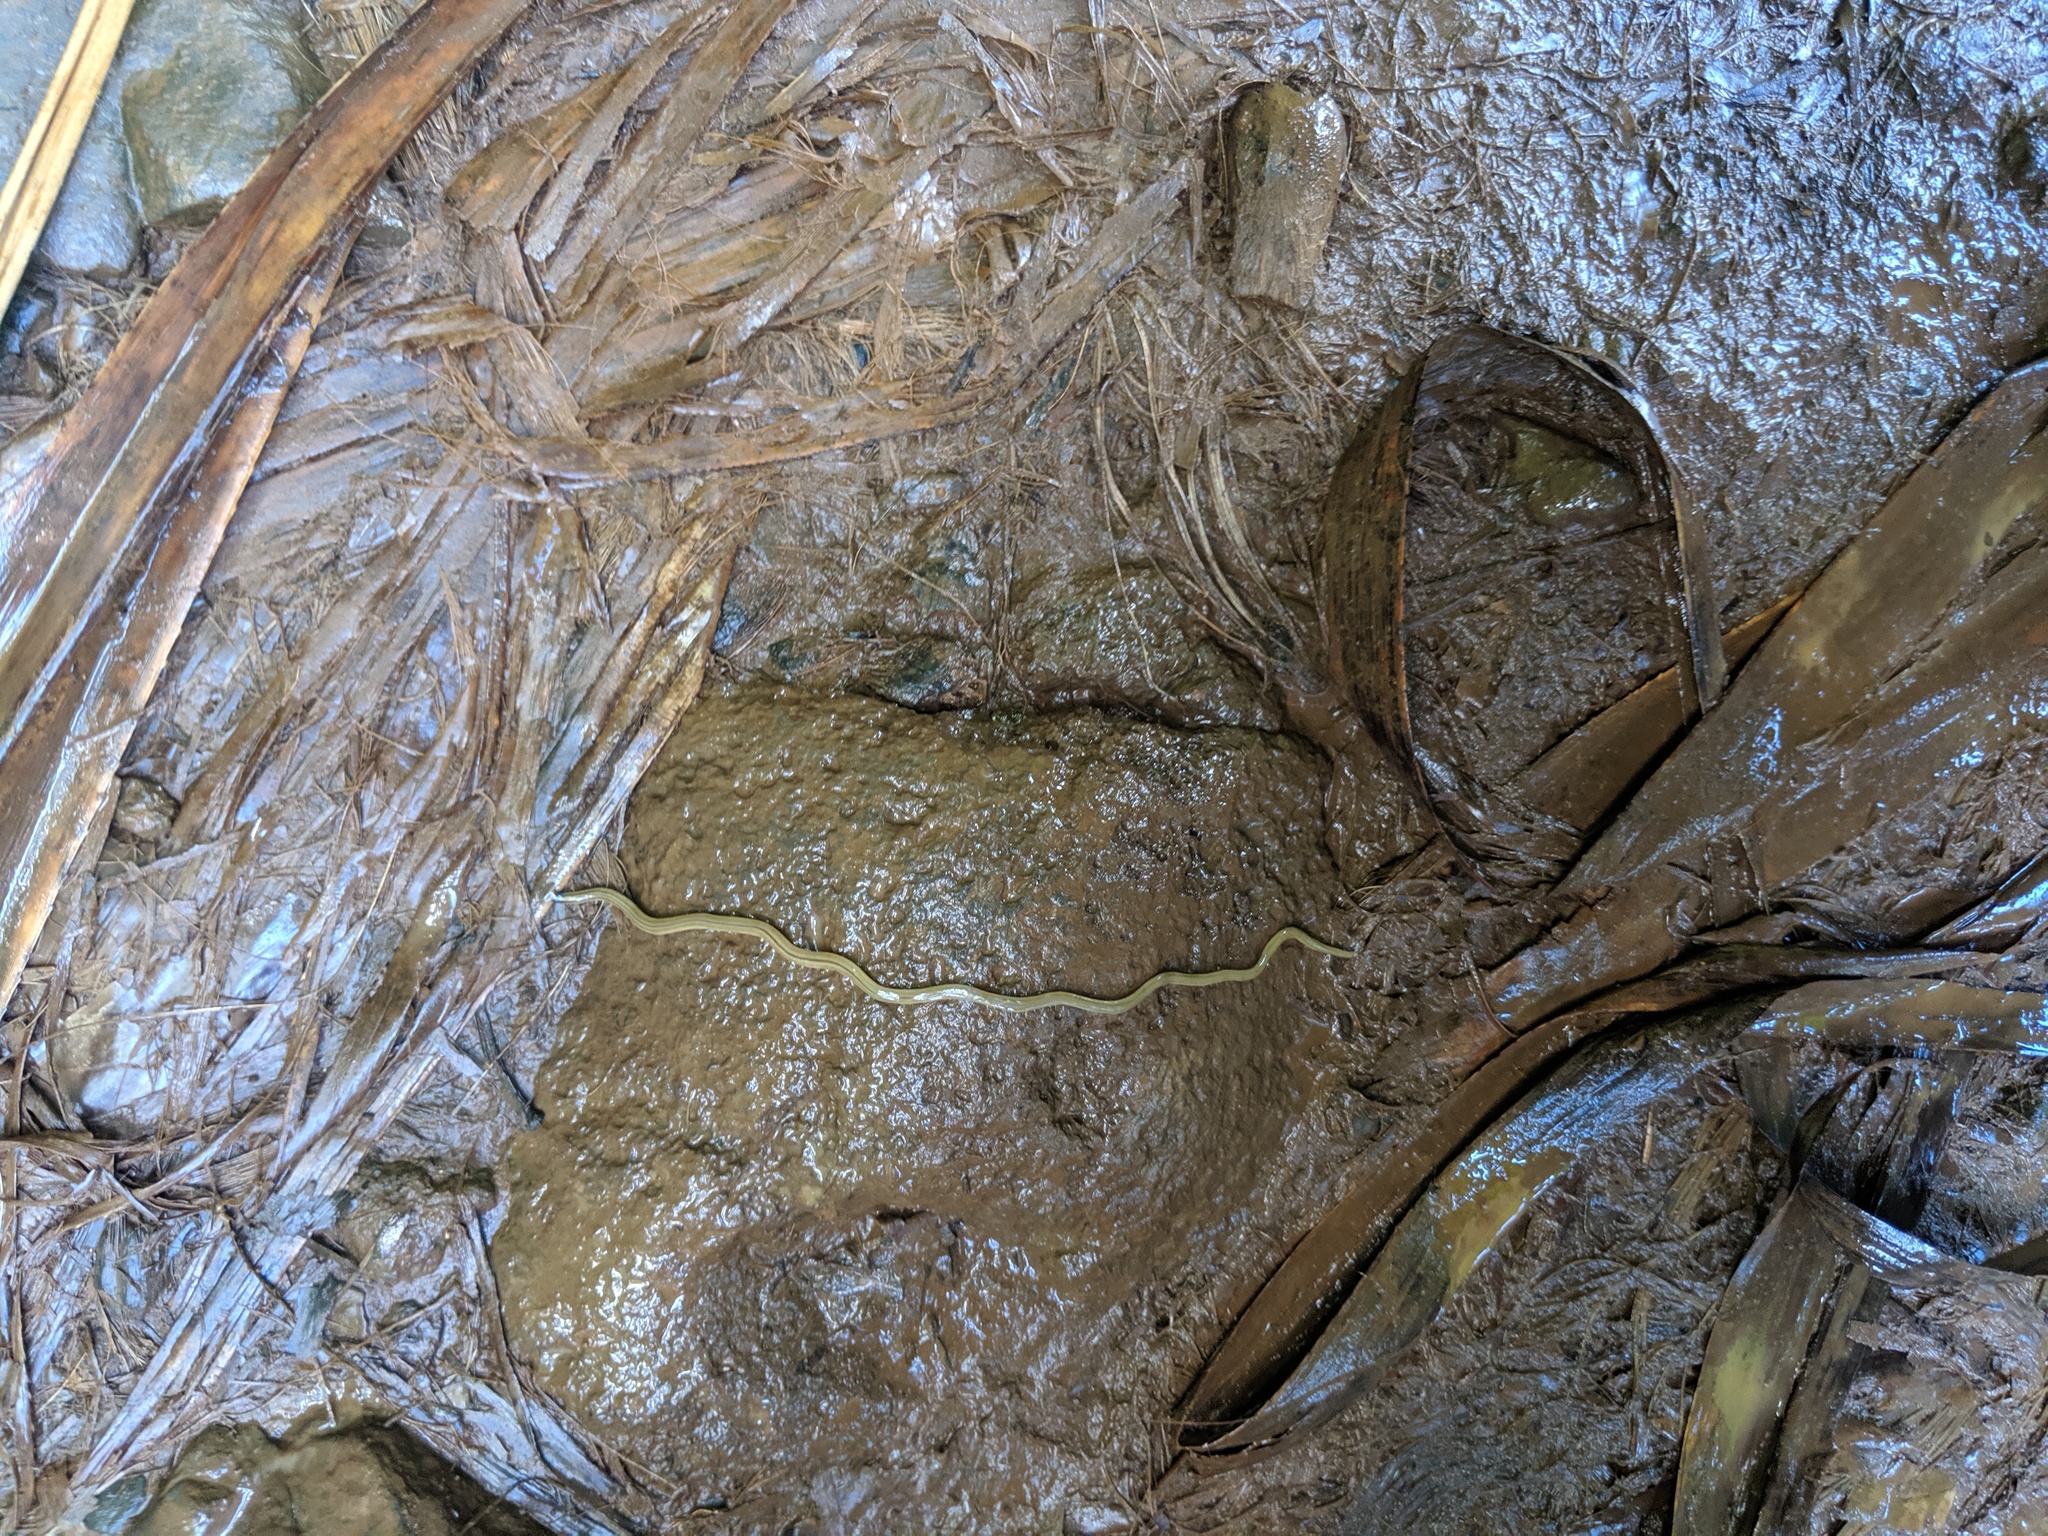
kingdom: Animalia
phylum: Platyhelminthes
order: Tricladida
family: Geoplanidae
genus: Bipalium
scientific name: Bipalium kewense
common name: Hammerhead flatworm
